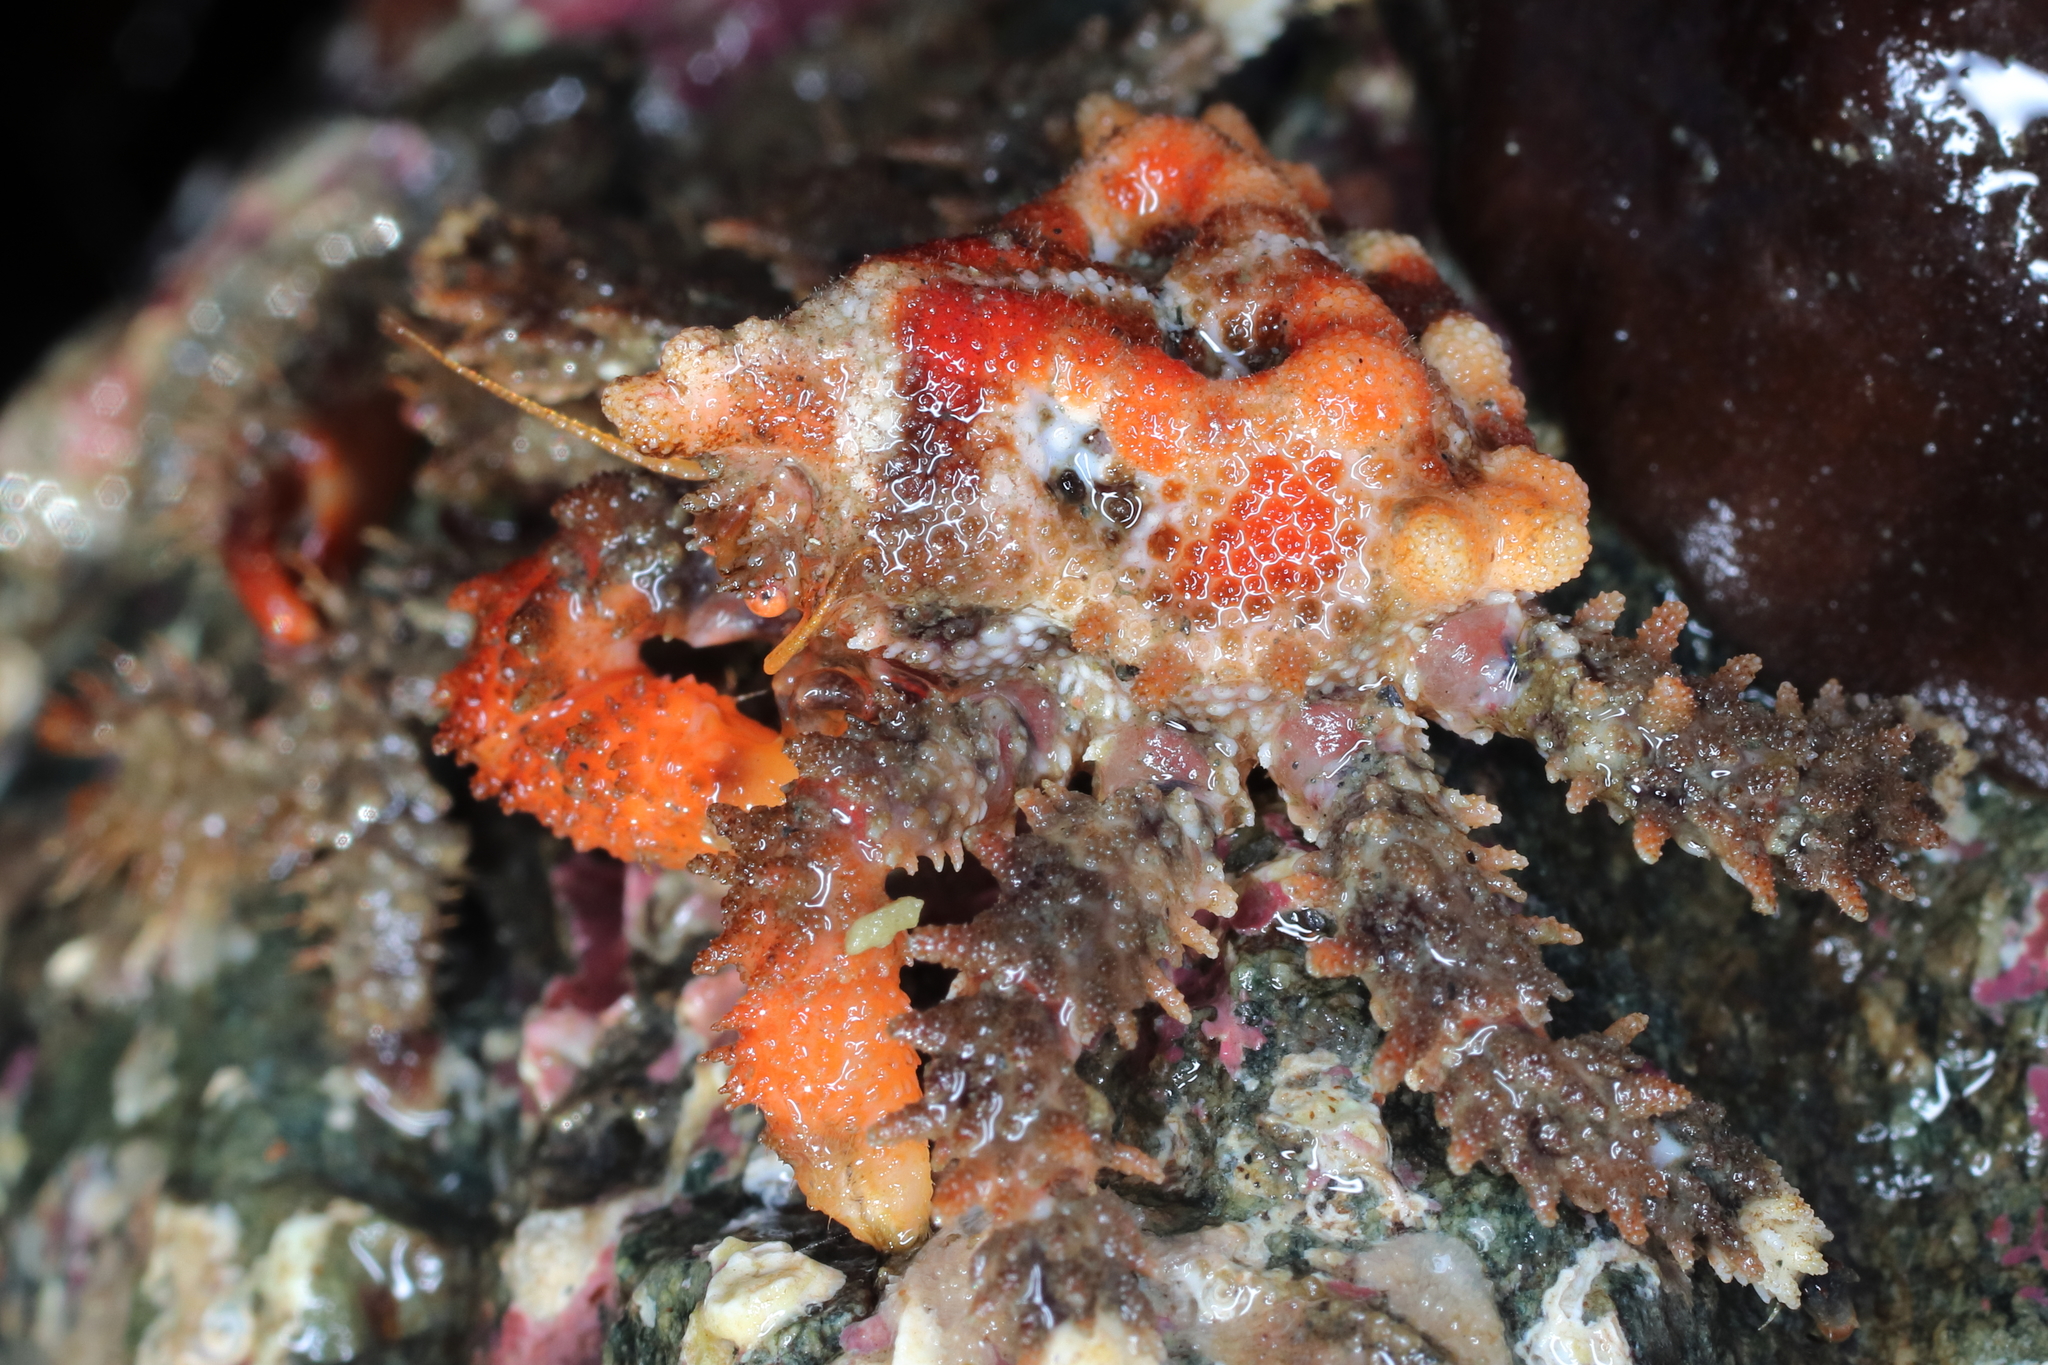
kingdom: Animalia
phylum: Arthropoda
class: Malacostraca
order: Decapoda
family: Lithodidae
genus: Phyllolithodes
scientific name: Phyllolithodes papillosus
